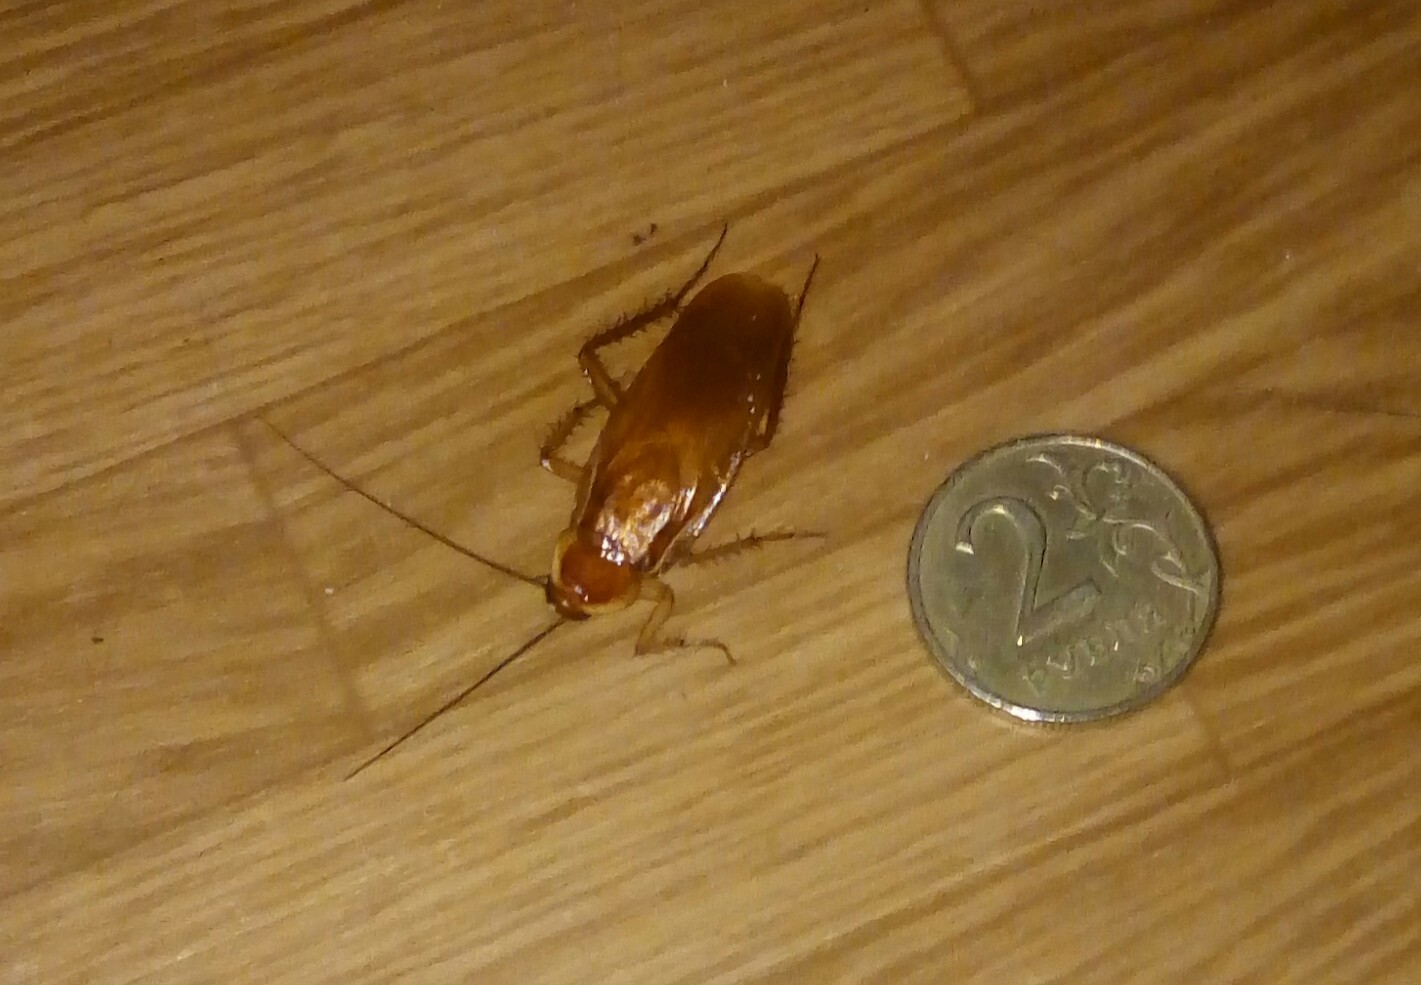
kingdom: Animalia
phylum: Arthropoda
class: Insecta
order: Blattodea
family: Blattidae
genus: Periplaneta
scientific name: Periplaneta lateralis
